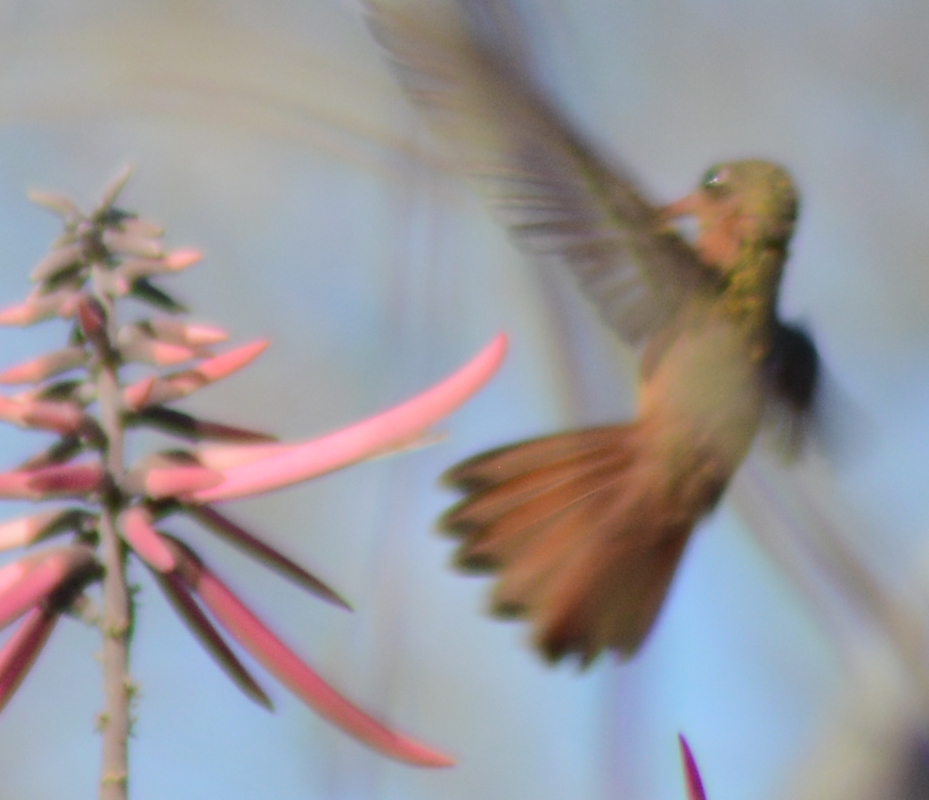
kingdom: Animalia
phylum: Chordata
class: Aves
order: Apodiformes
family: Trochilidae
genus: Amazilia
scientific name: Amazilia rutila
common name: Cinnamon hummingbird
